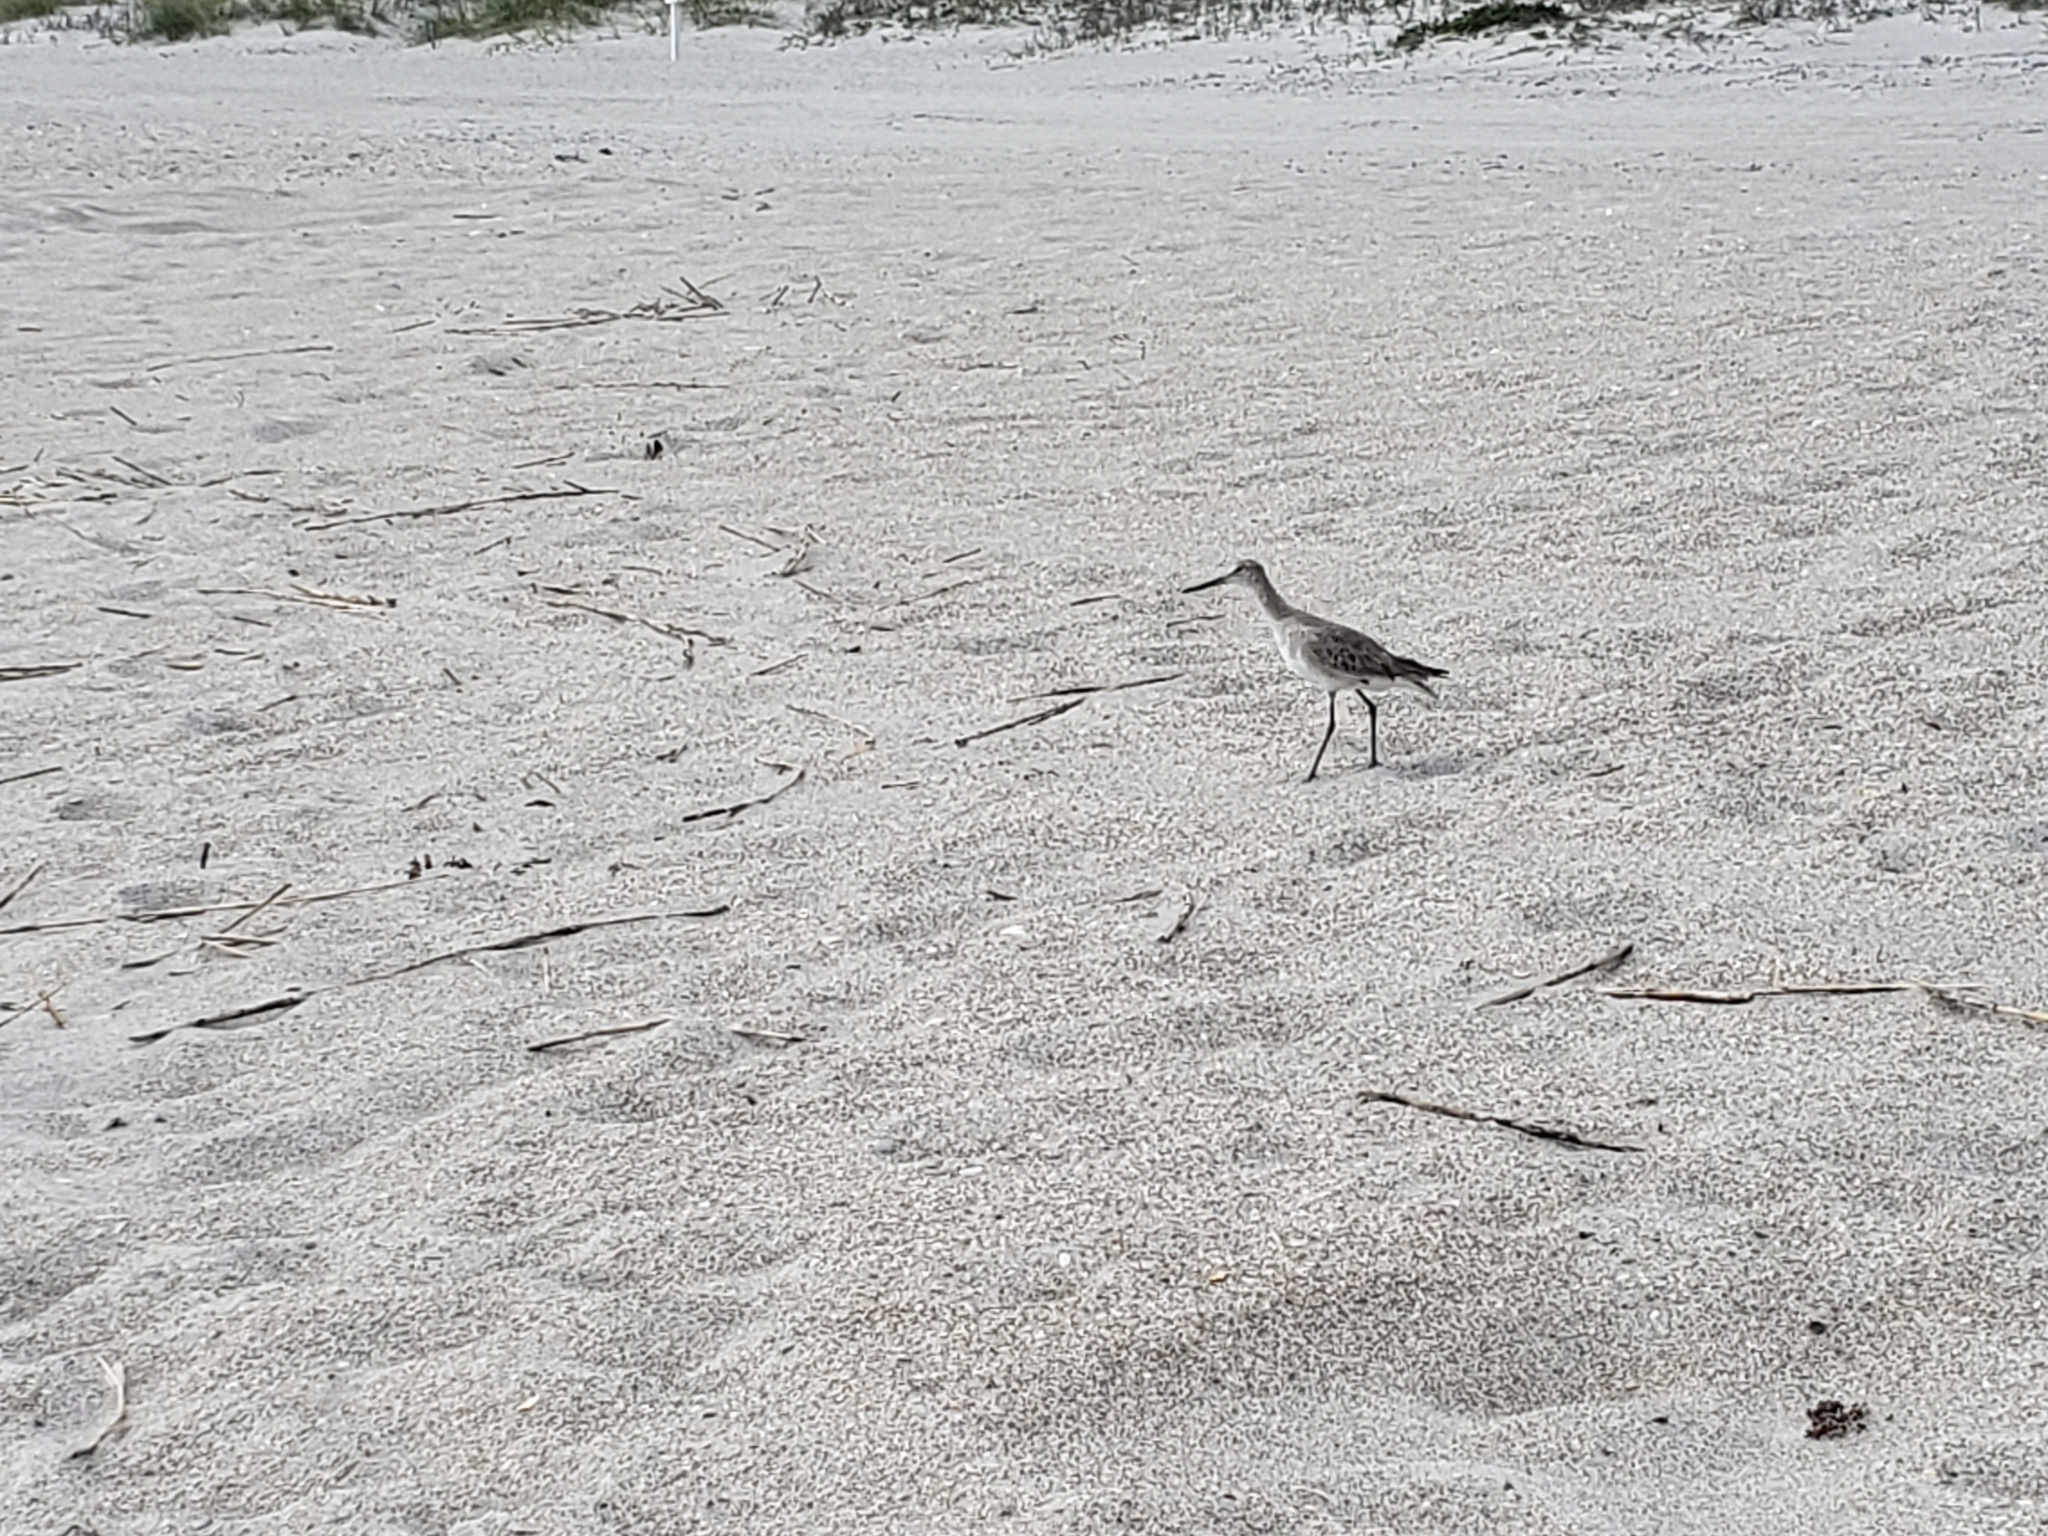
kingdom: Animalia
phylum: Chordata
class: Aves
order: Charadriiformes
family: Scolopacidae
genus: Tringa
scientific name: Tringa semipalmata
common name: Willet
